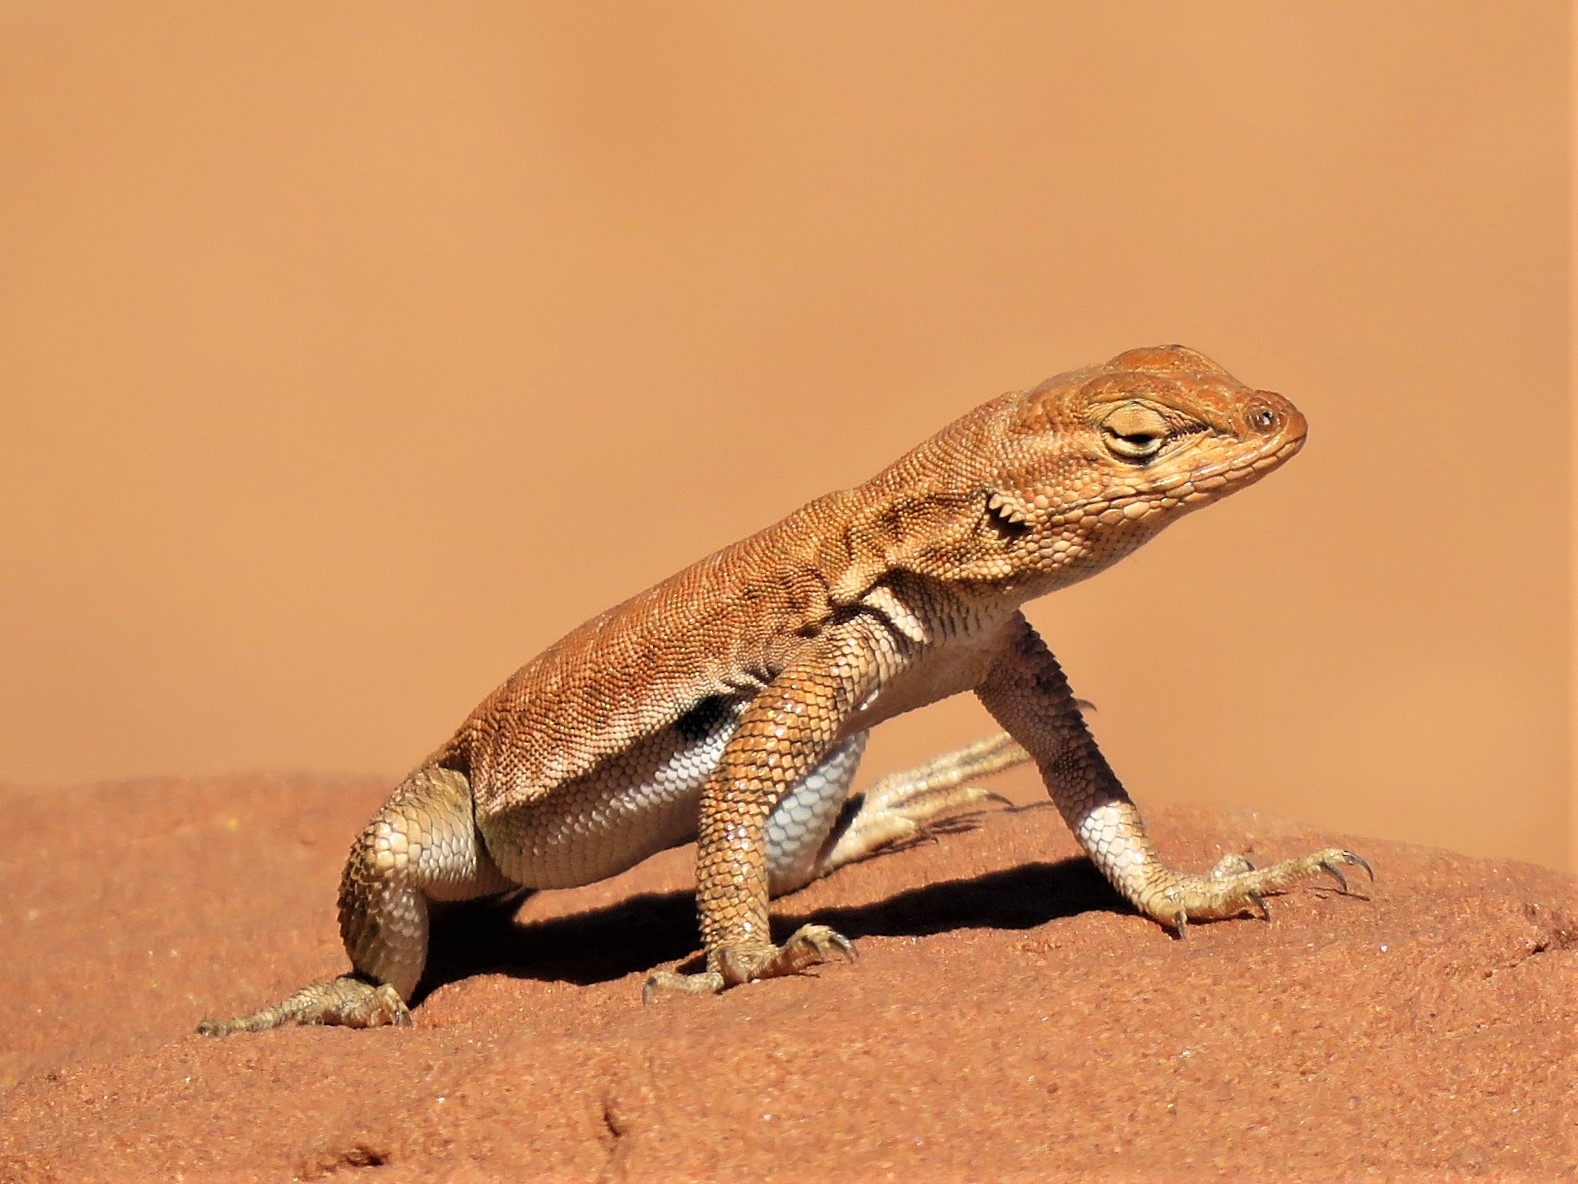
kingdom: Animalia
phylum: Chordata
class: Squamata
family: Phrynosomatidae
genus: Uta
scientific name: Uta stansburiana
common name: Side-blotched lizard
